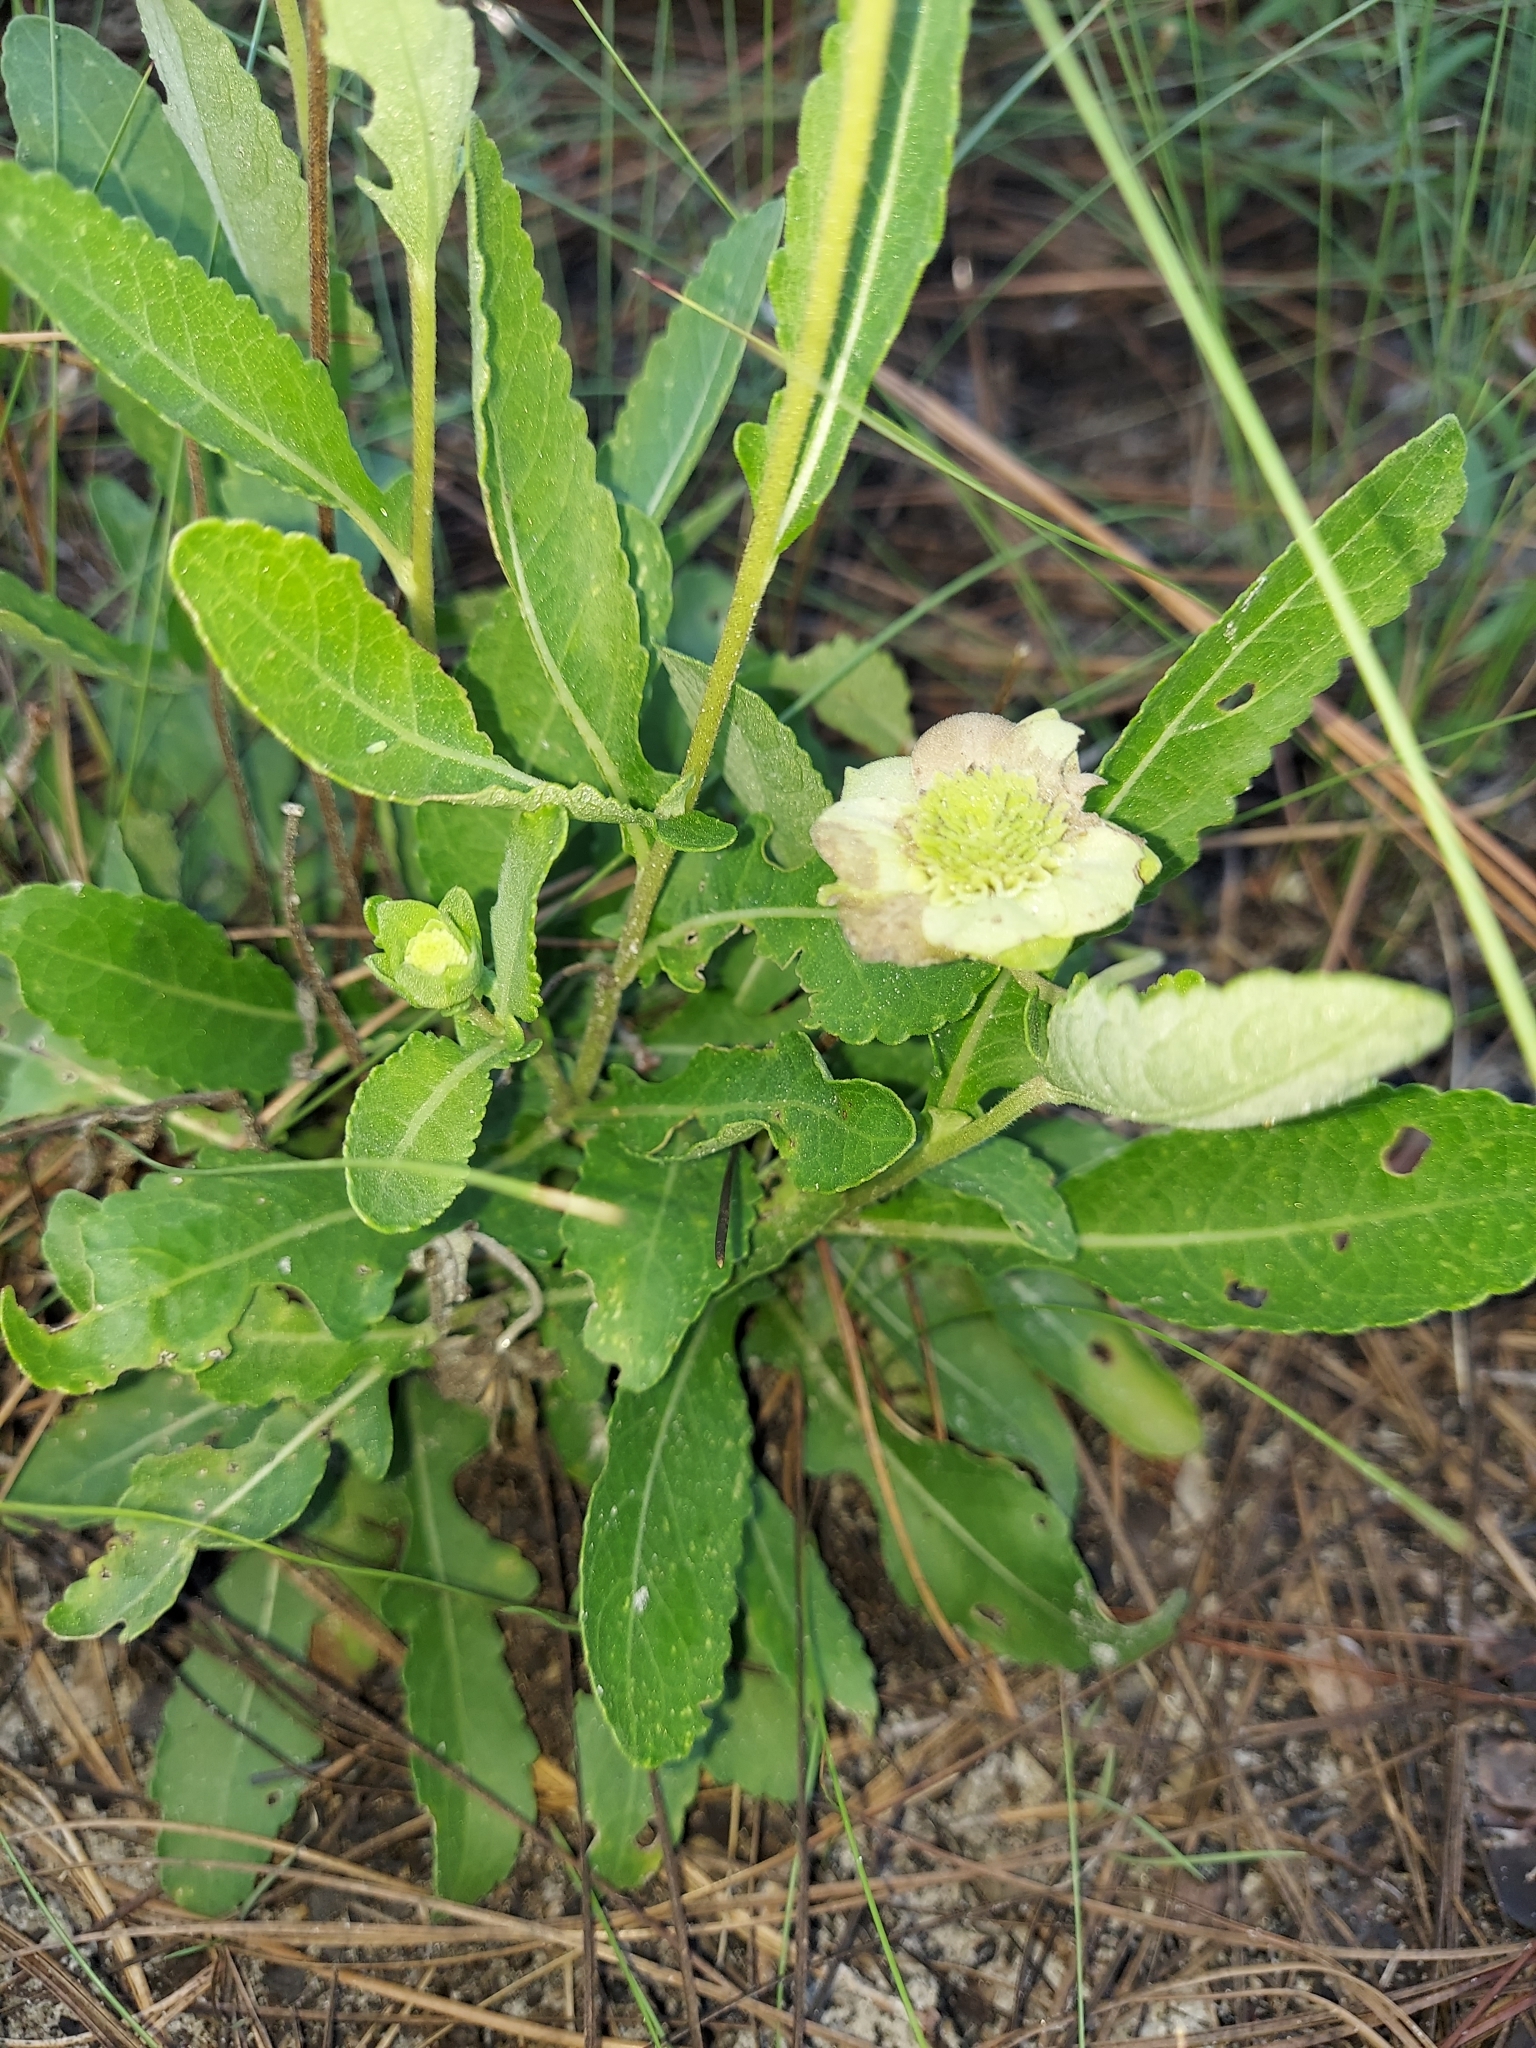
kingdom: Plantae
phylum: Tracheophyta
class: Magnoliopsida
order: Asterales
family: Asteraceae
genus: Berlandiera
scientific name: Berlandiera subacaulis
